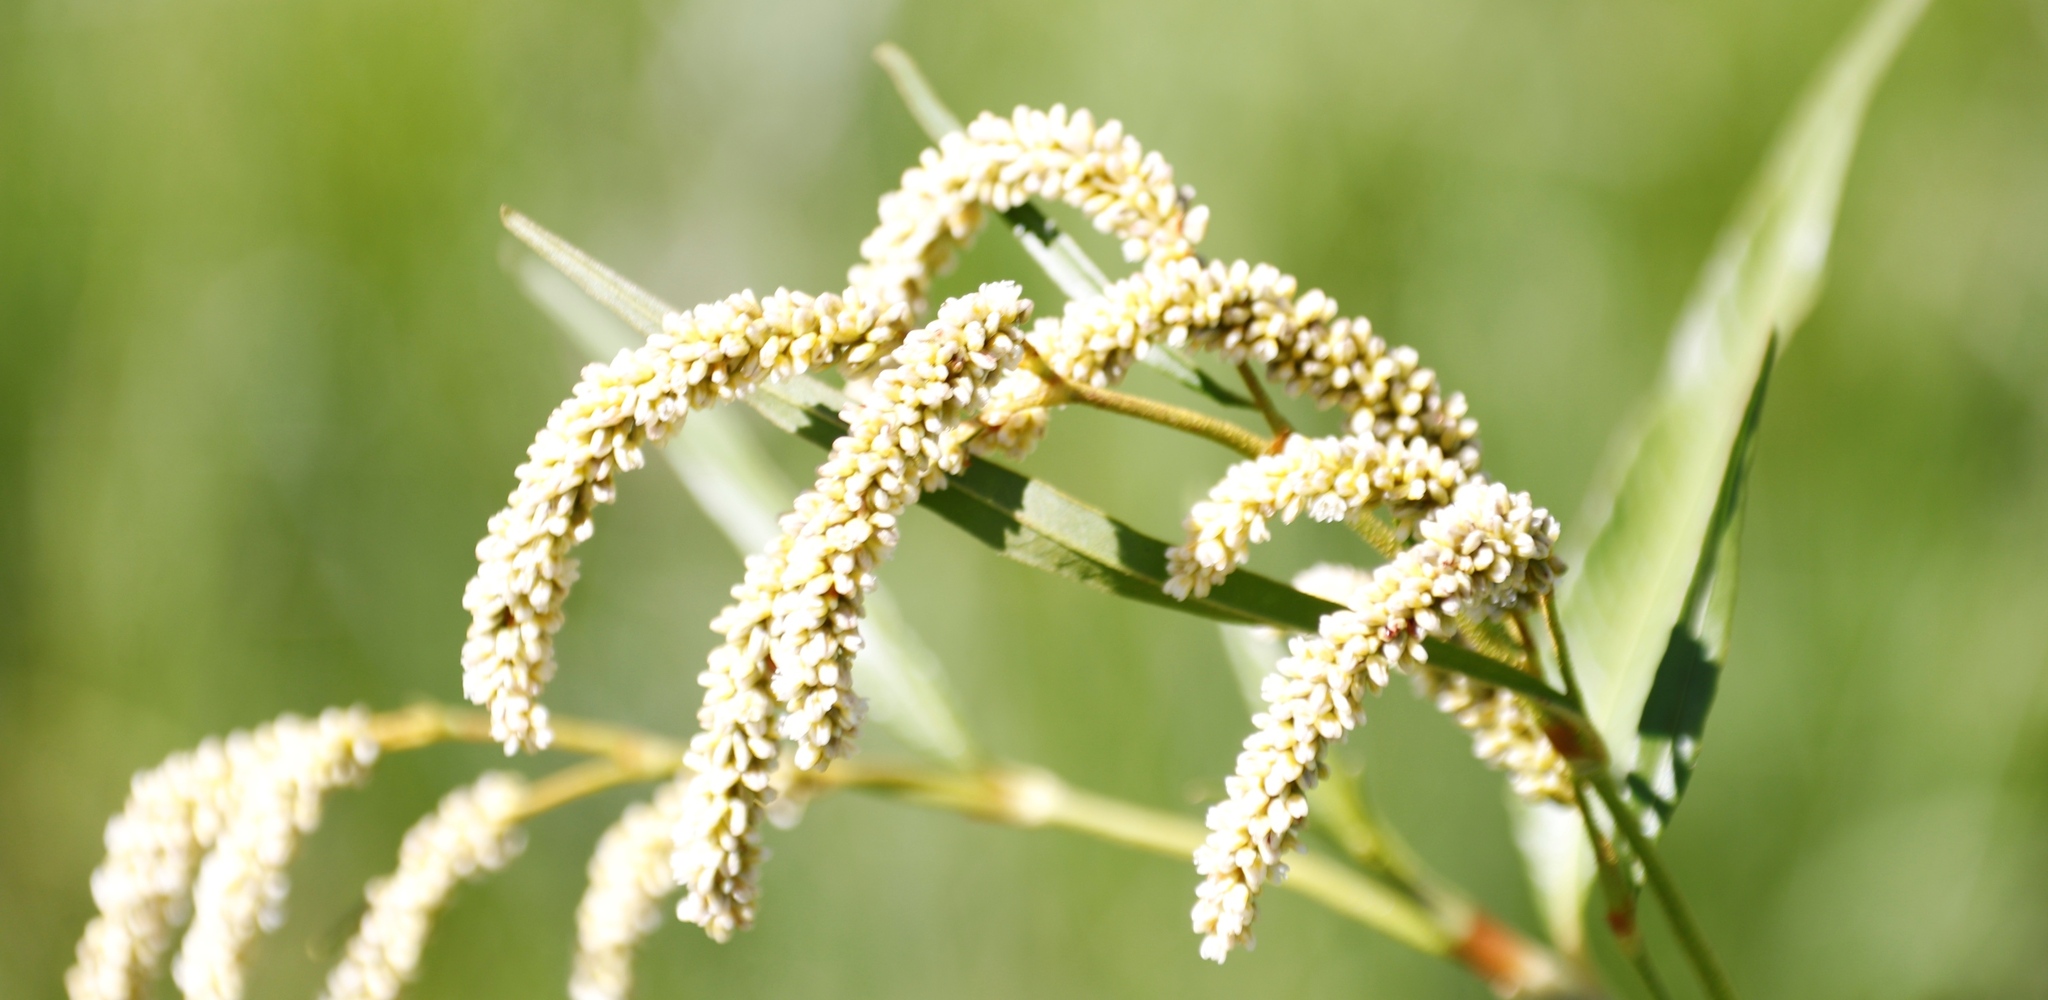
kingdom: Plantae
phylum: Tracheophyta
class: Magnoliopsida
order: Caryophyllales
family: Polygonaceae
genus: Persicaria
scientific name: Persicaria lapathifolia
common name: Curlytop knotweed
